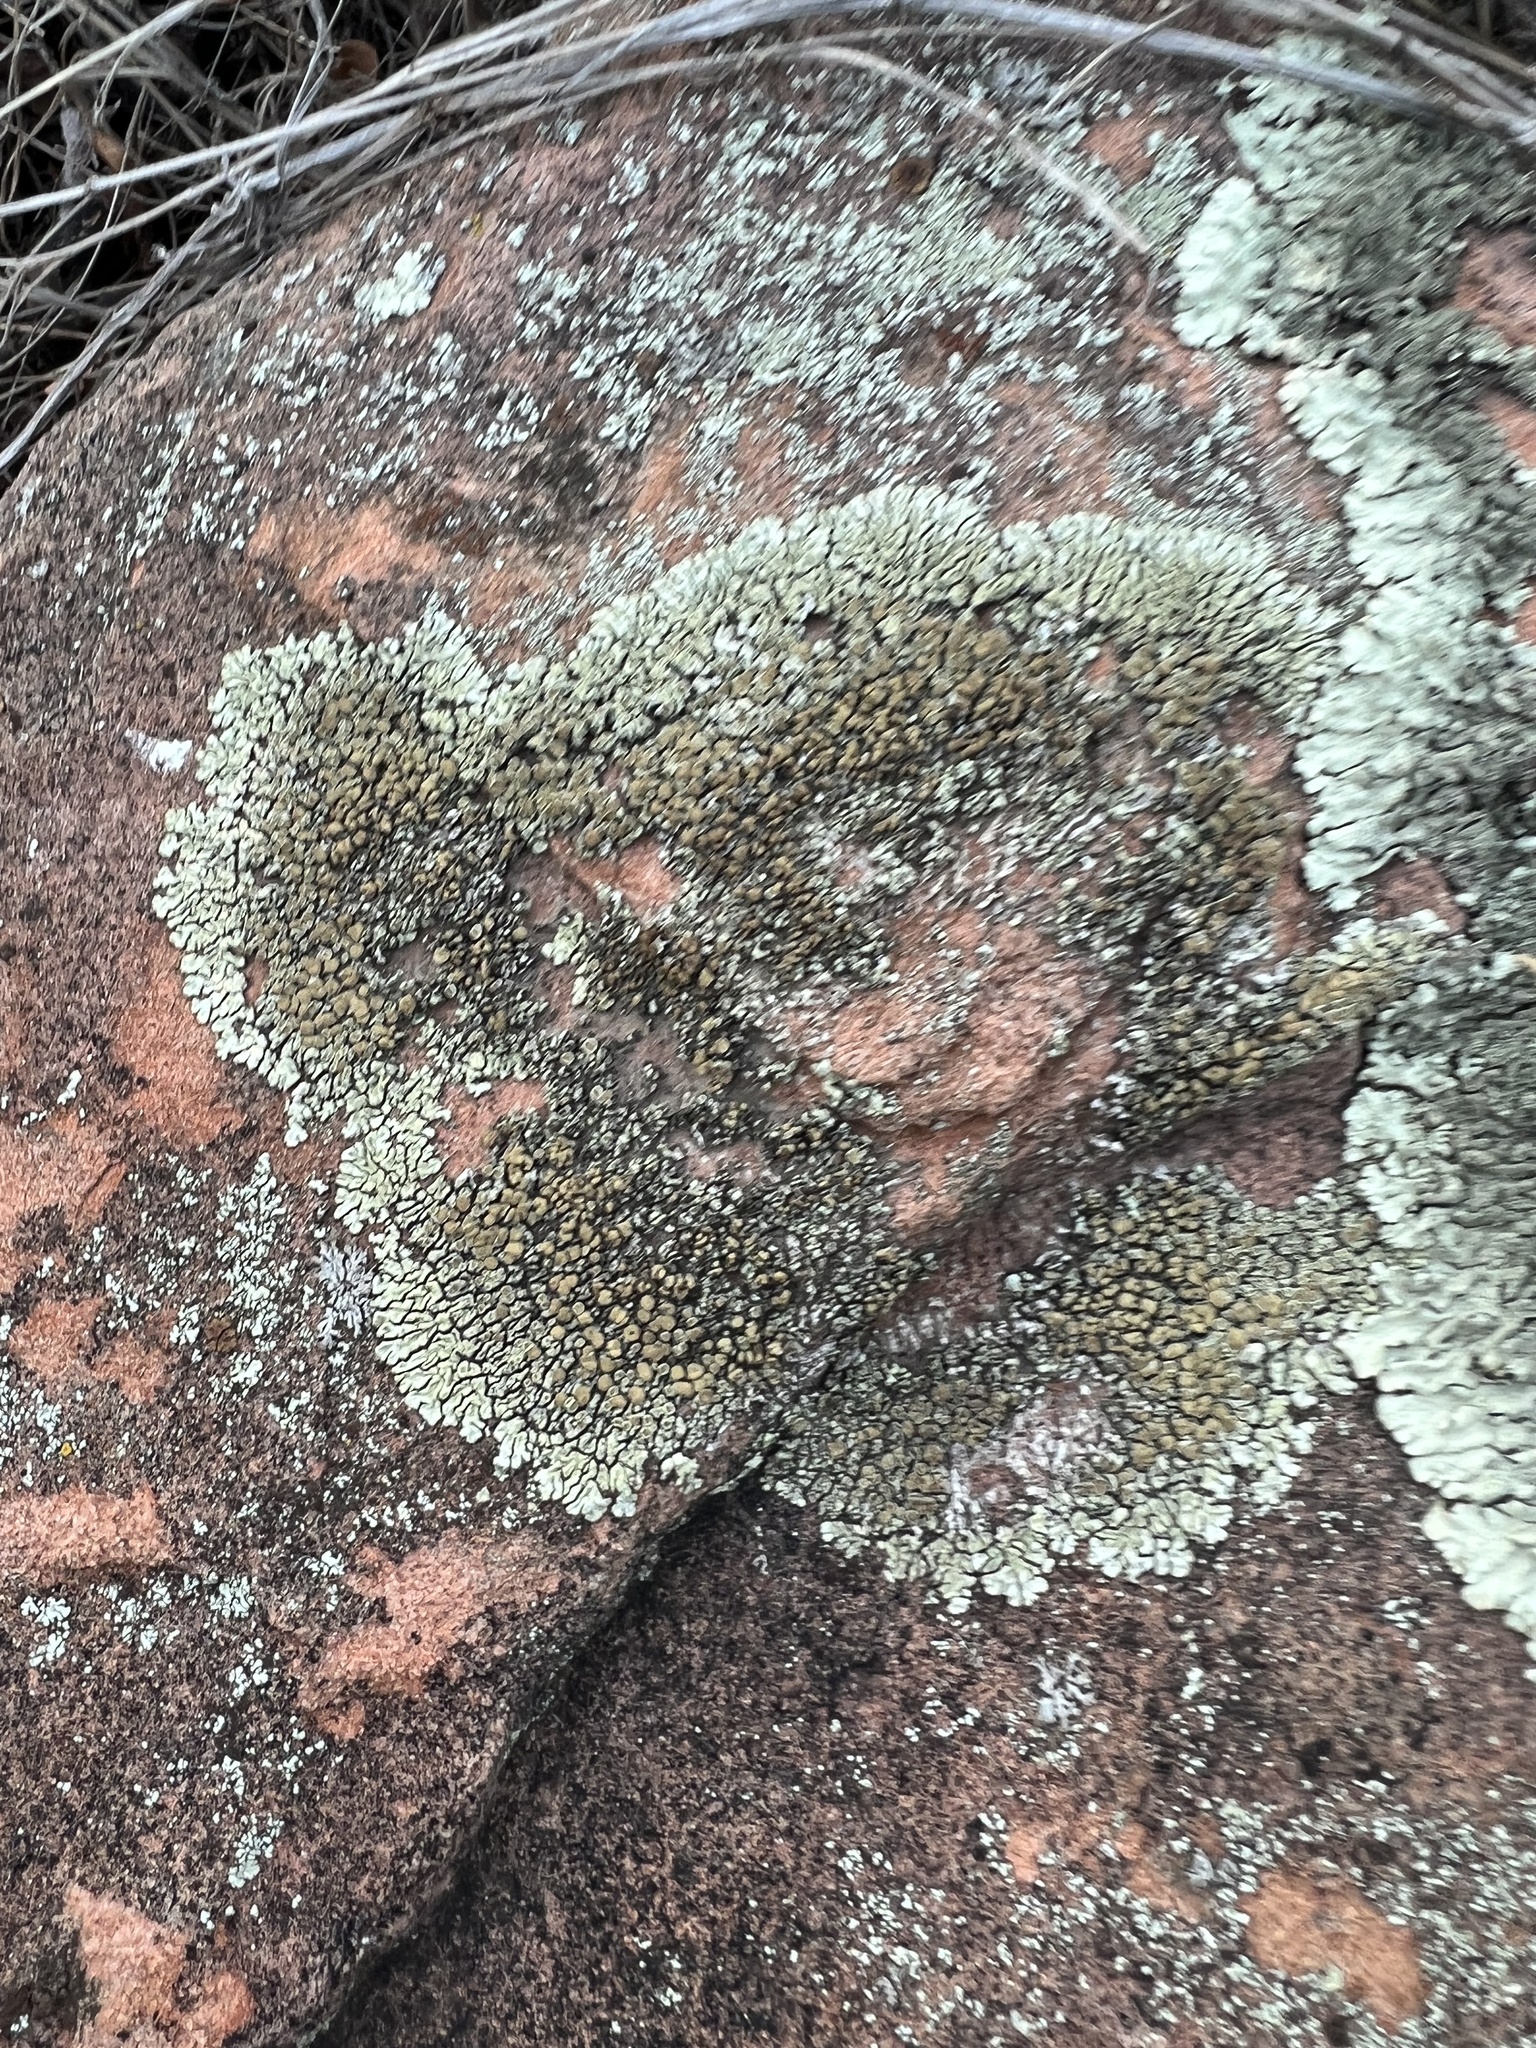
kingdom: Fungi
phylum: Ascomycota
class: Lecanoromycetes
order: Lecanorales
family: Lecanoraceae
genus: Protoparmeliopsis
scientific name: Protoparmeliopsis muralis
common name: Stonewall rim lichen
